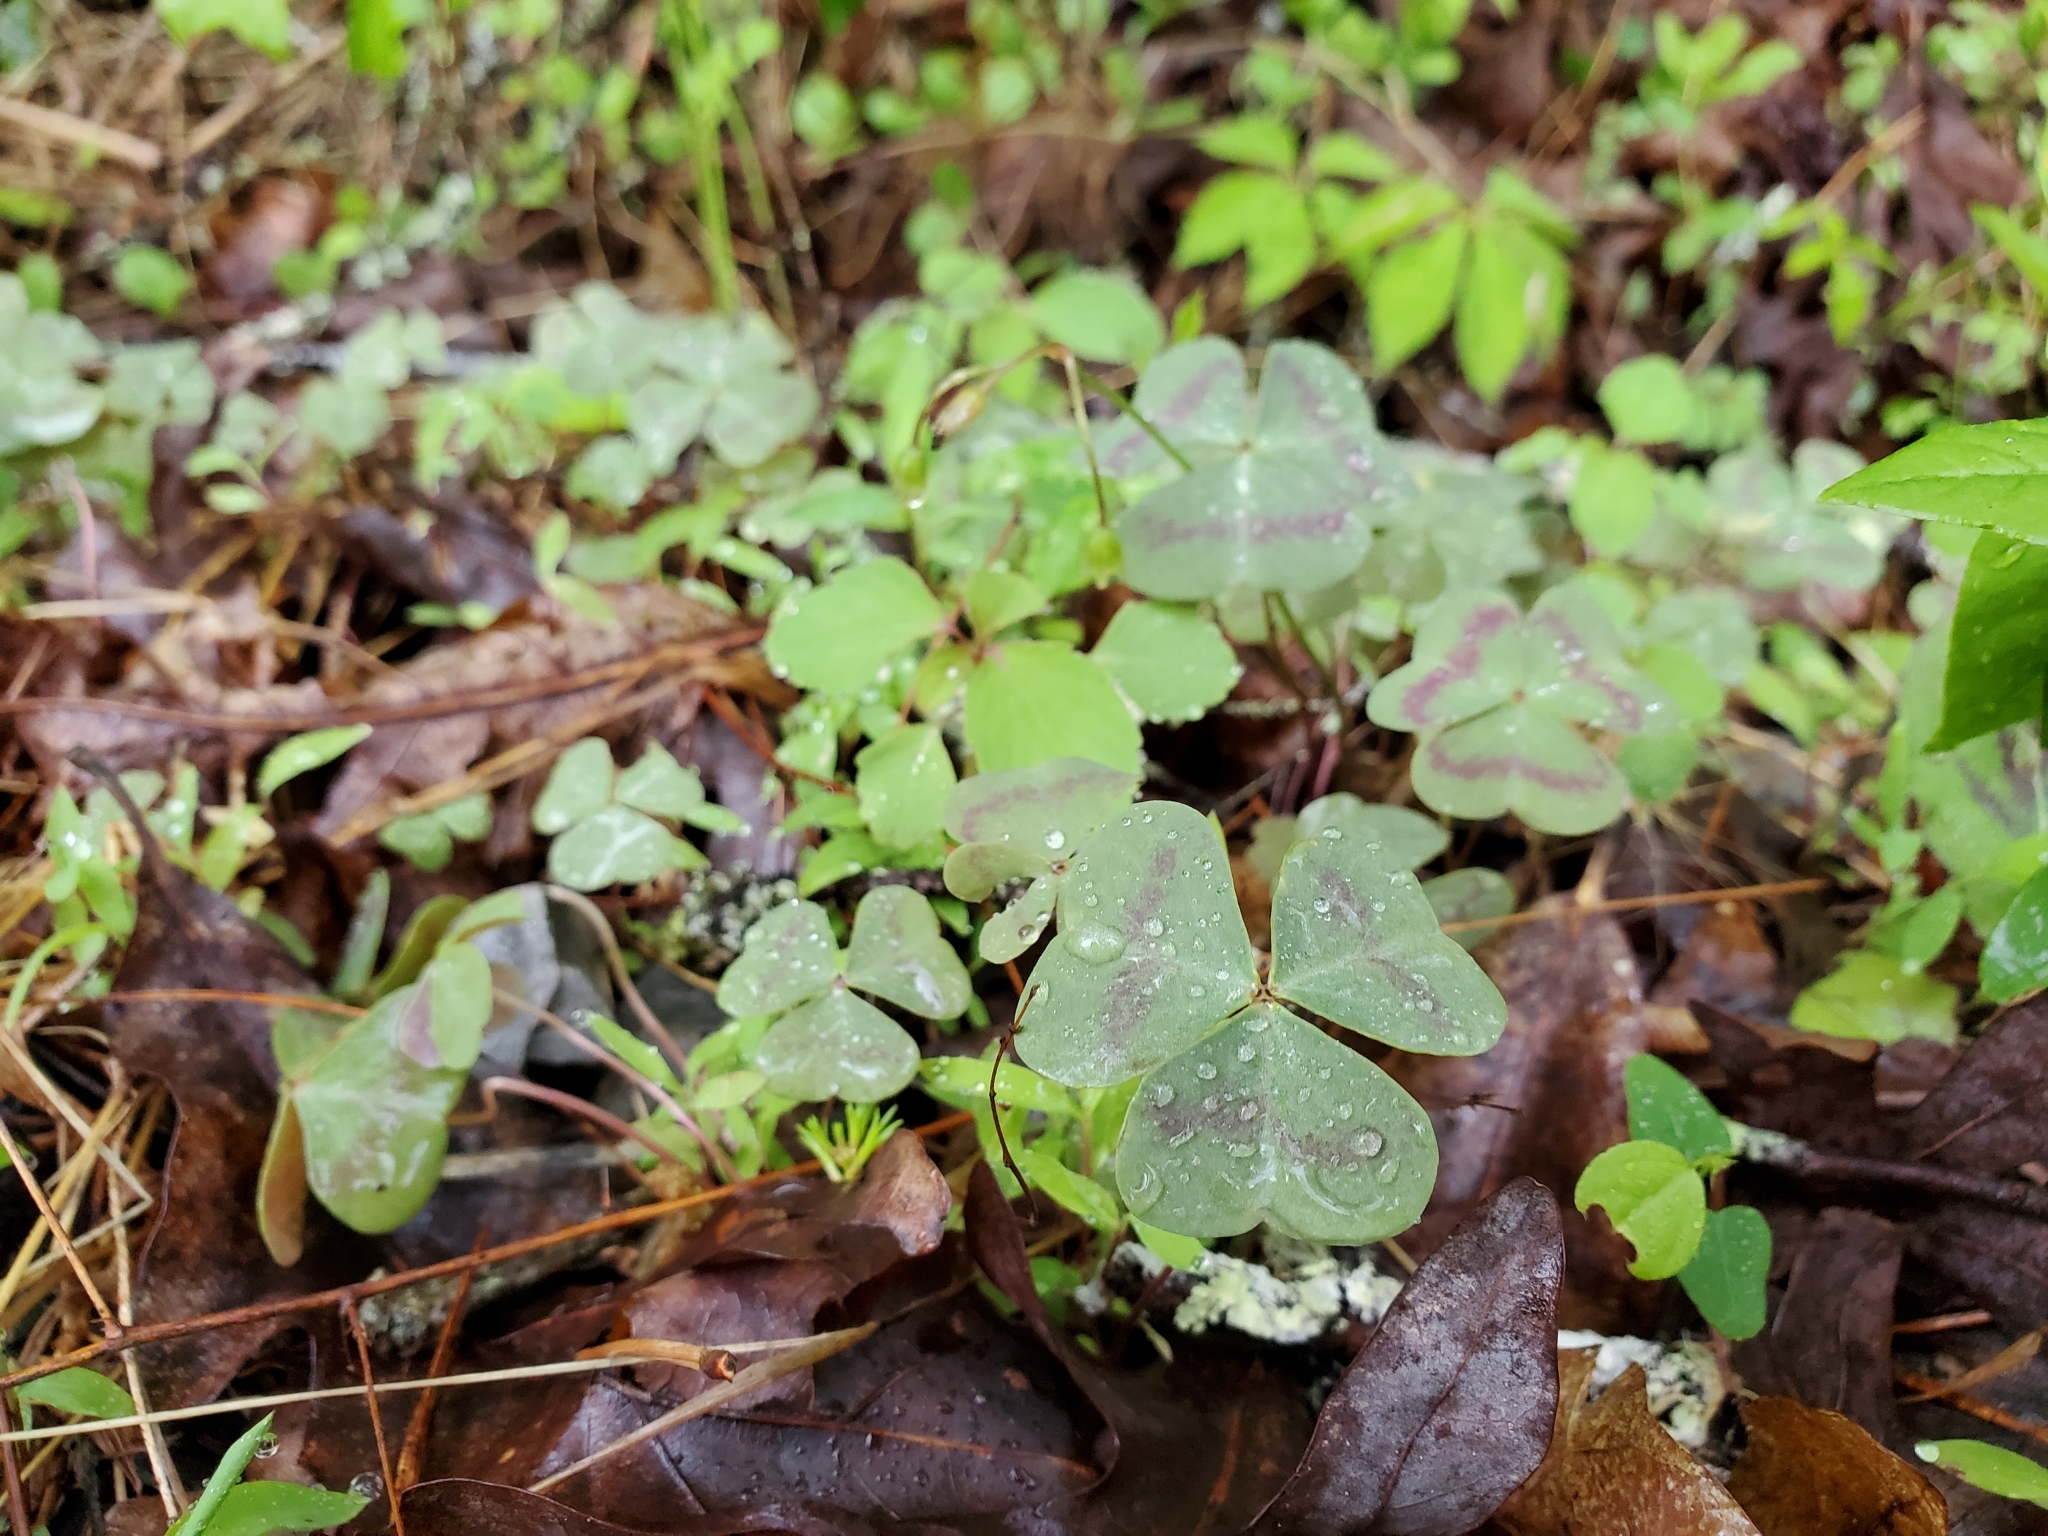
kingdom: Plantae
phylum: Tracheophyta
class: Magnoliopsida
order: Oxalidales
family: Oxalidaceae
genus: Oxalis
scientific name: Oxalis violacea
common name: Violet wood-sorrel
